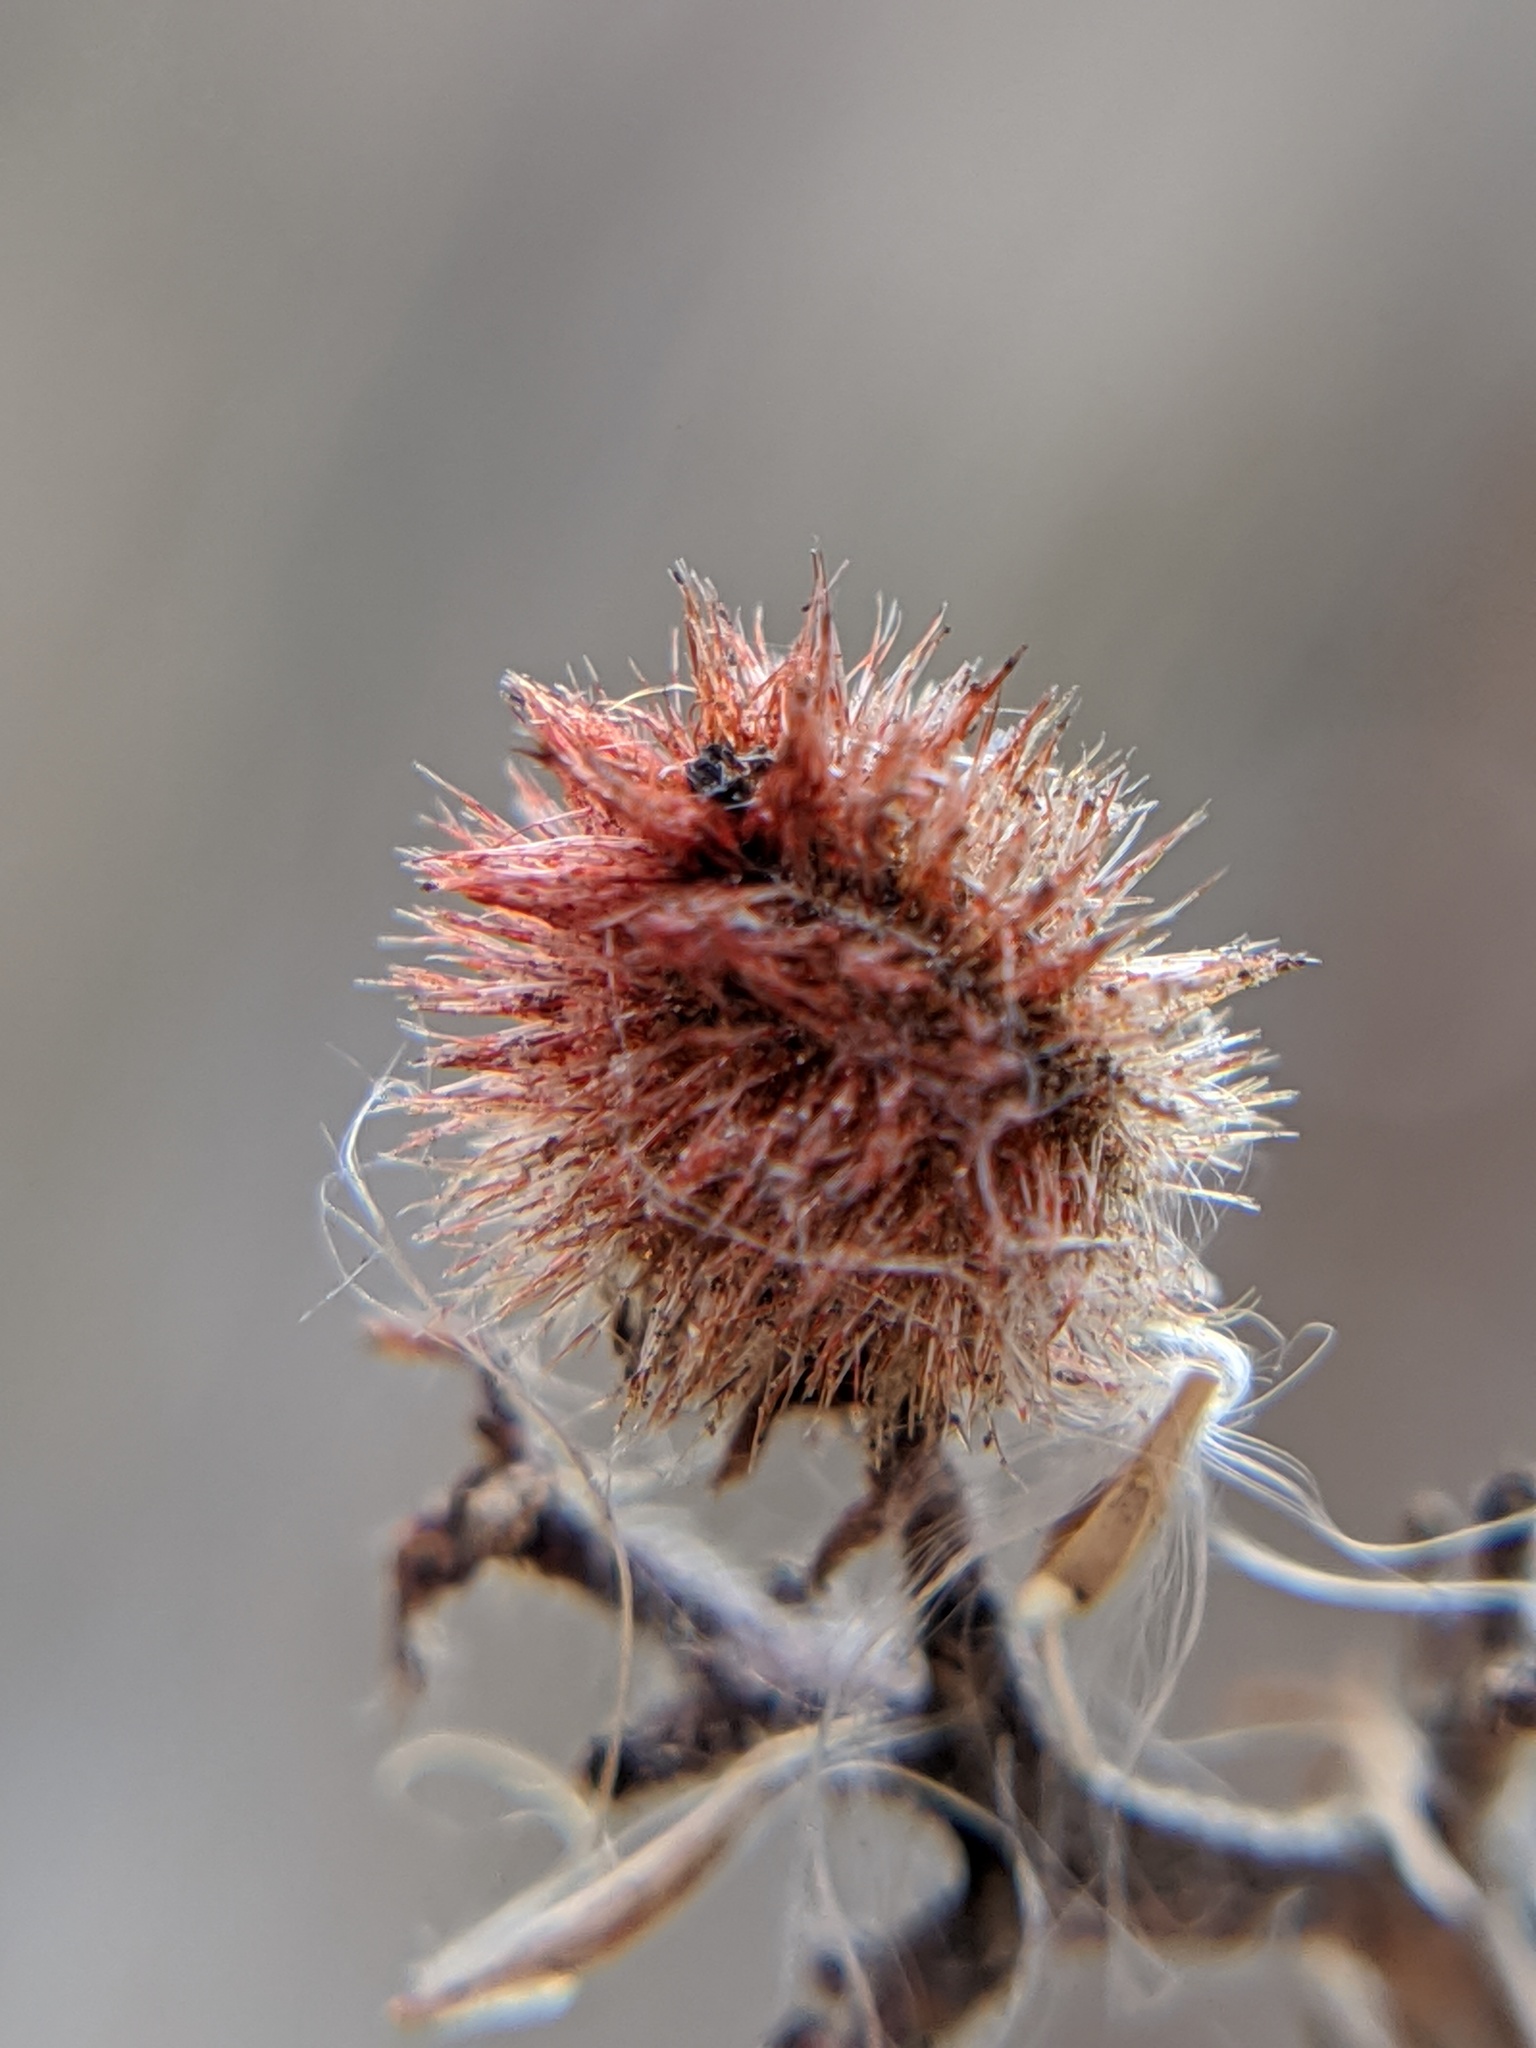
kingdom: Plantae
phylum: Tracheophyta
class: Magnoliopsida
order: Sapindales
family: Anacardiaceae
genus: Rhus
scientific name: Rhus typhina
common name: Staghorn sumac
